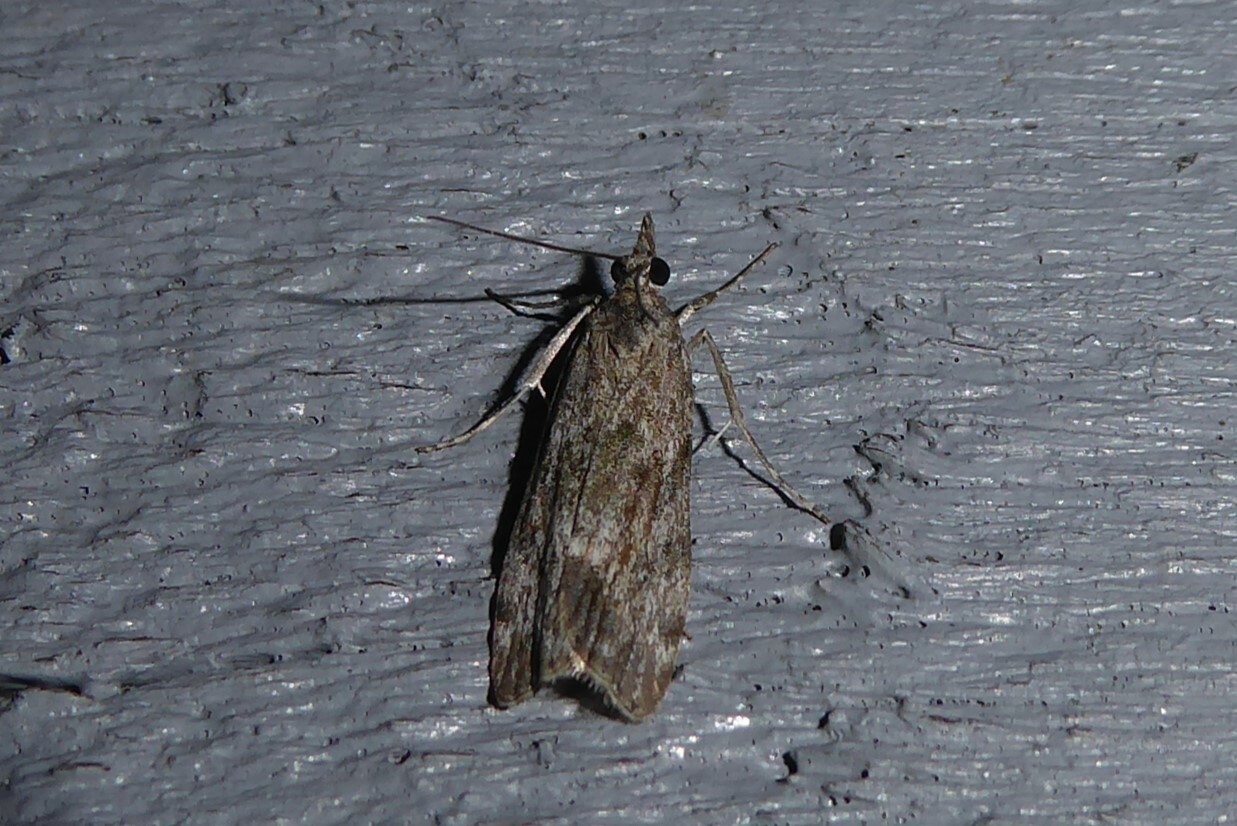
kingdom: Animalia
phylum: Arthropoda
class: Insecta
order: Lepidoptera
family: Crambidae
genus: Eudonia
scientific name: Eudonia rakaiensis
